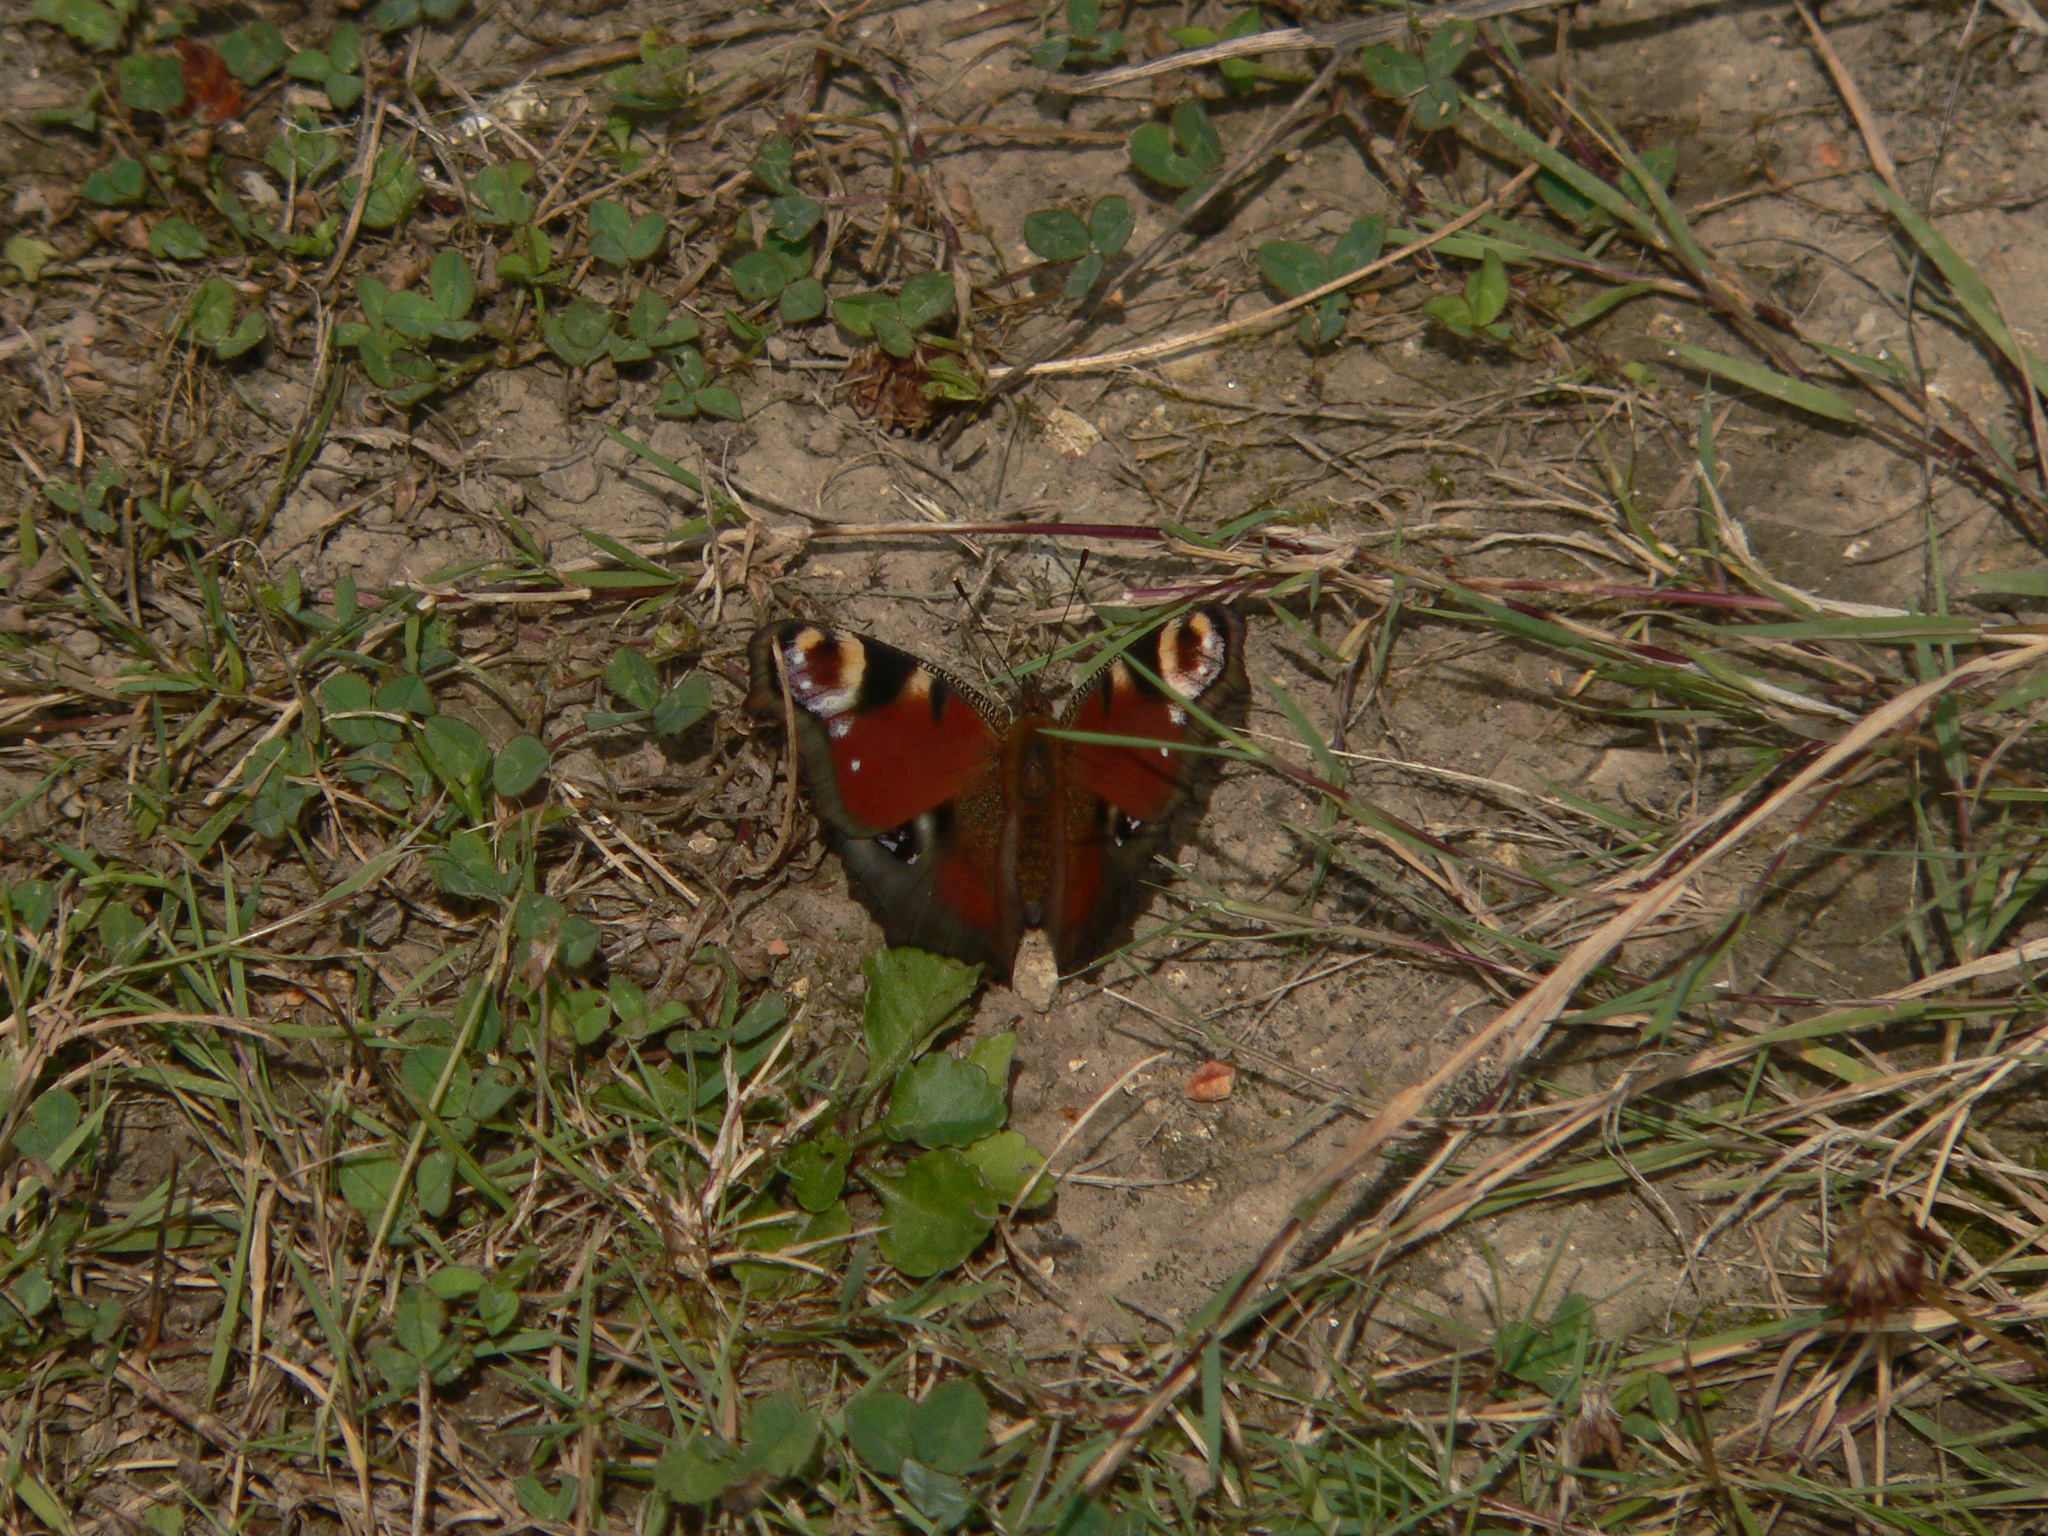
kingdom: Animalia
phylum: Arthropoda
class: Insecta
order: Lepidoptera
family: Nymphalidae
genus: Aglais
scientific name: Aglais io
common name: Peacock
